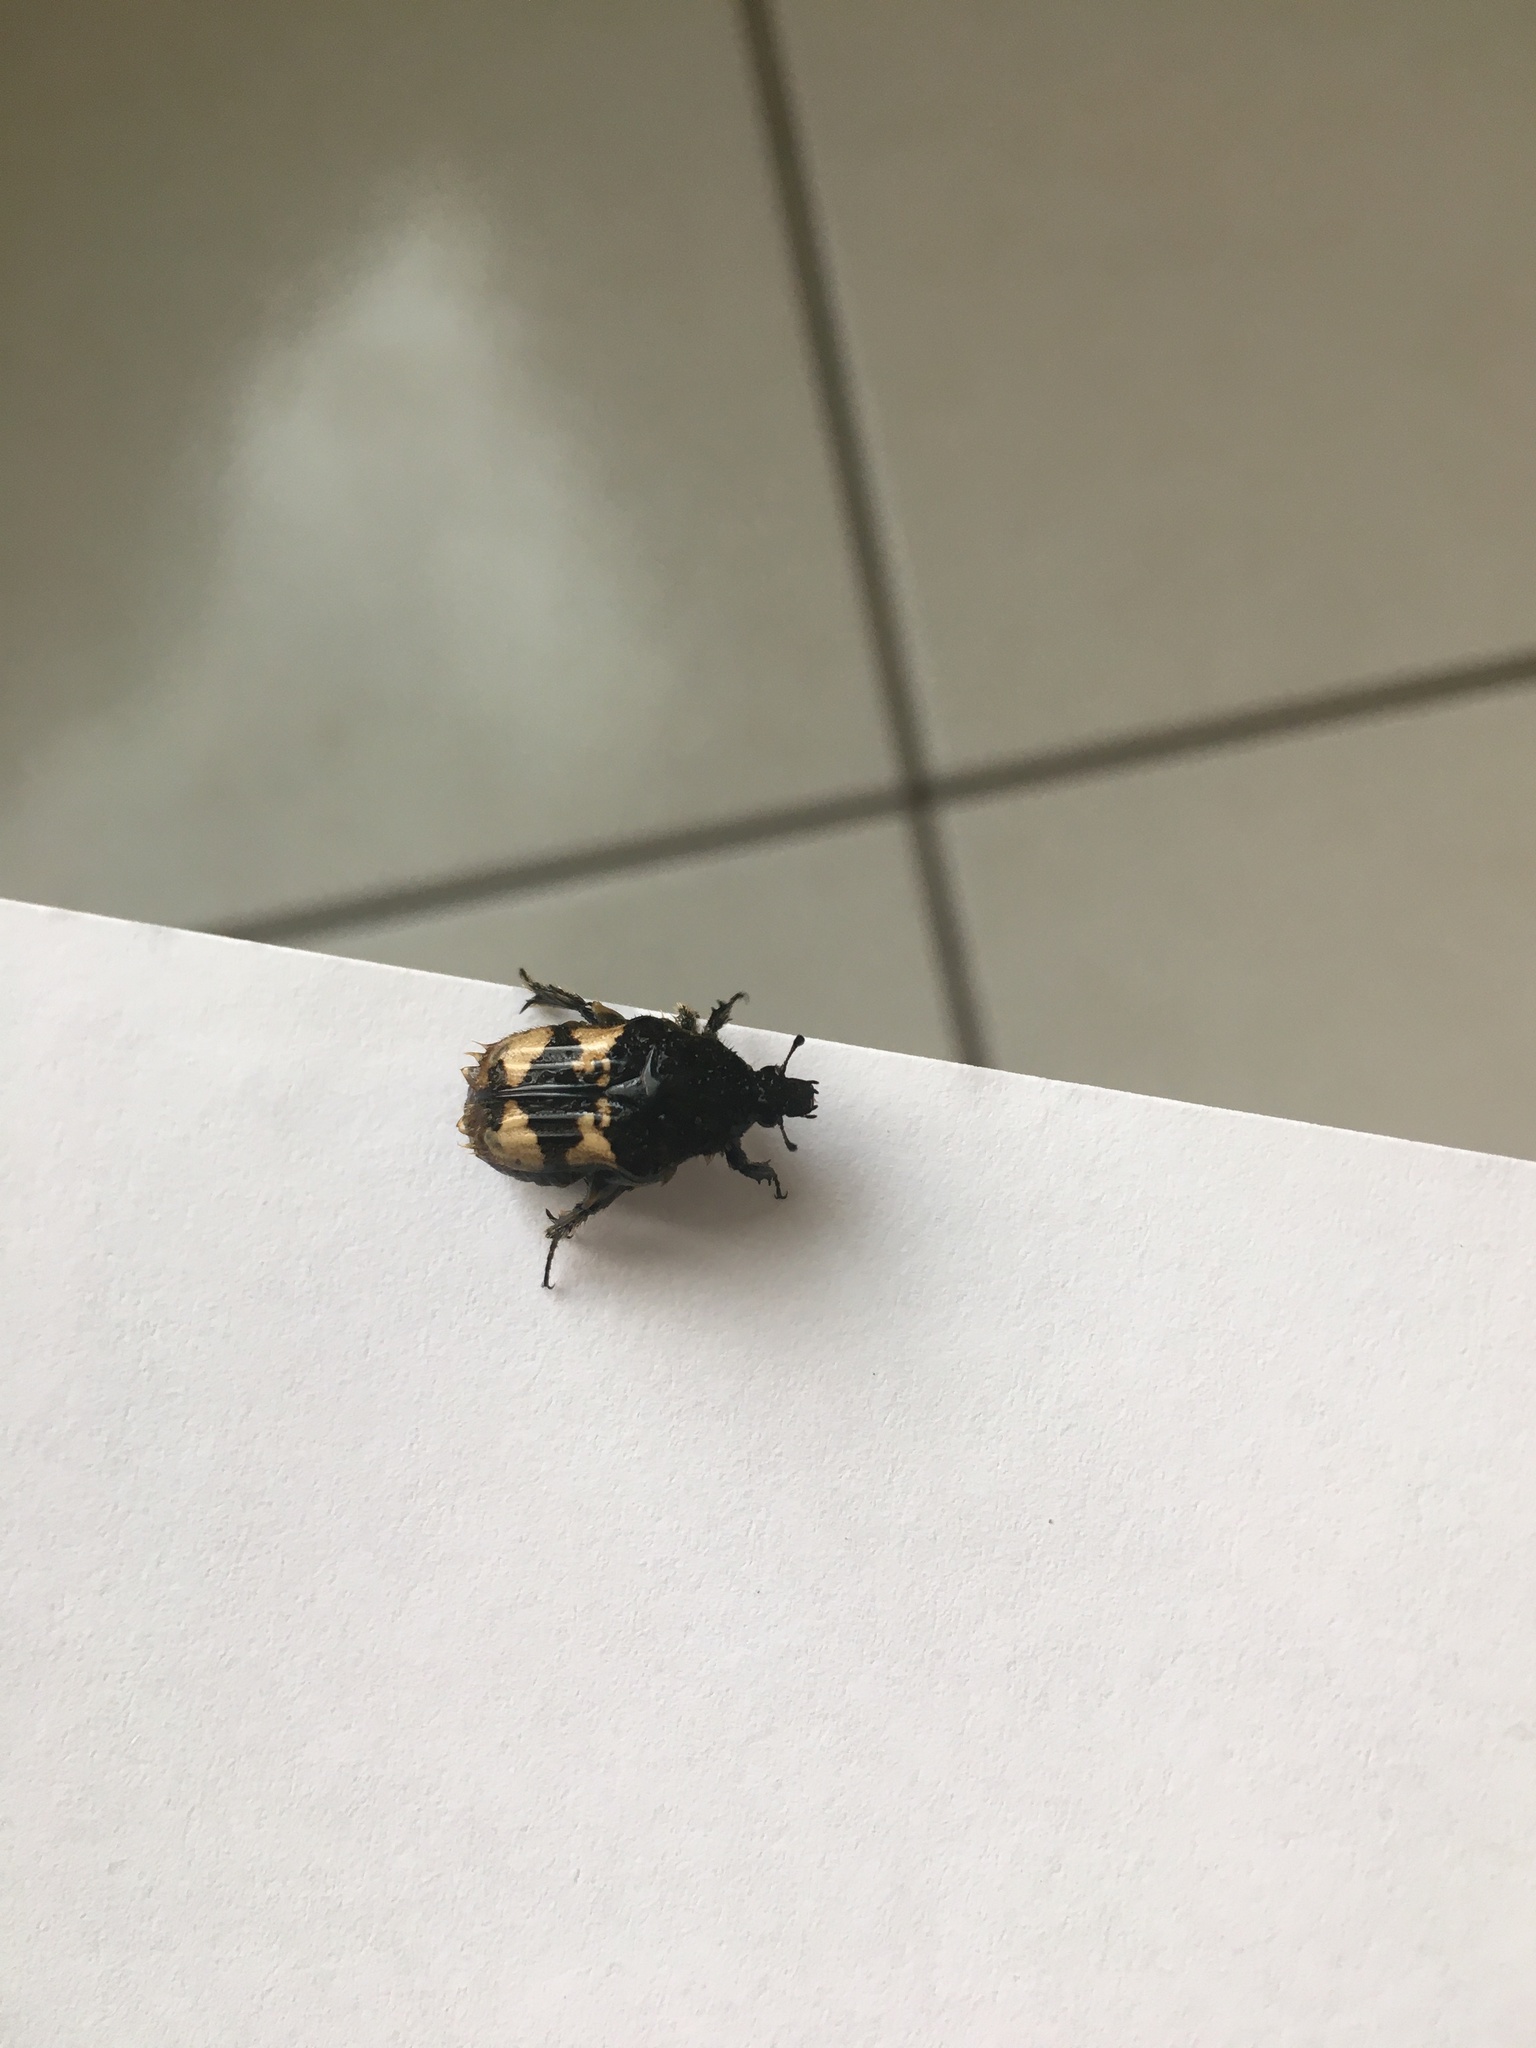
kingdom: Animalia
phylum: Arthropoda
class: Insecta
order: Coleoptera
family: Scarabaeidae
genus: Euphoria
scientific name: Euphoria basalis
